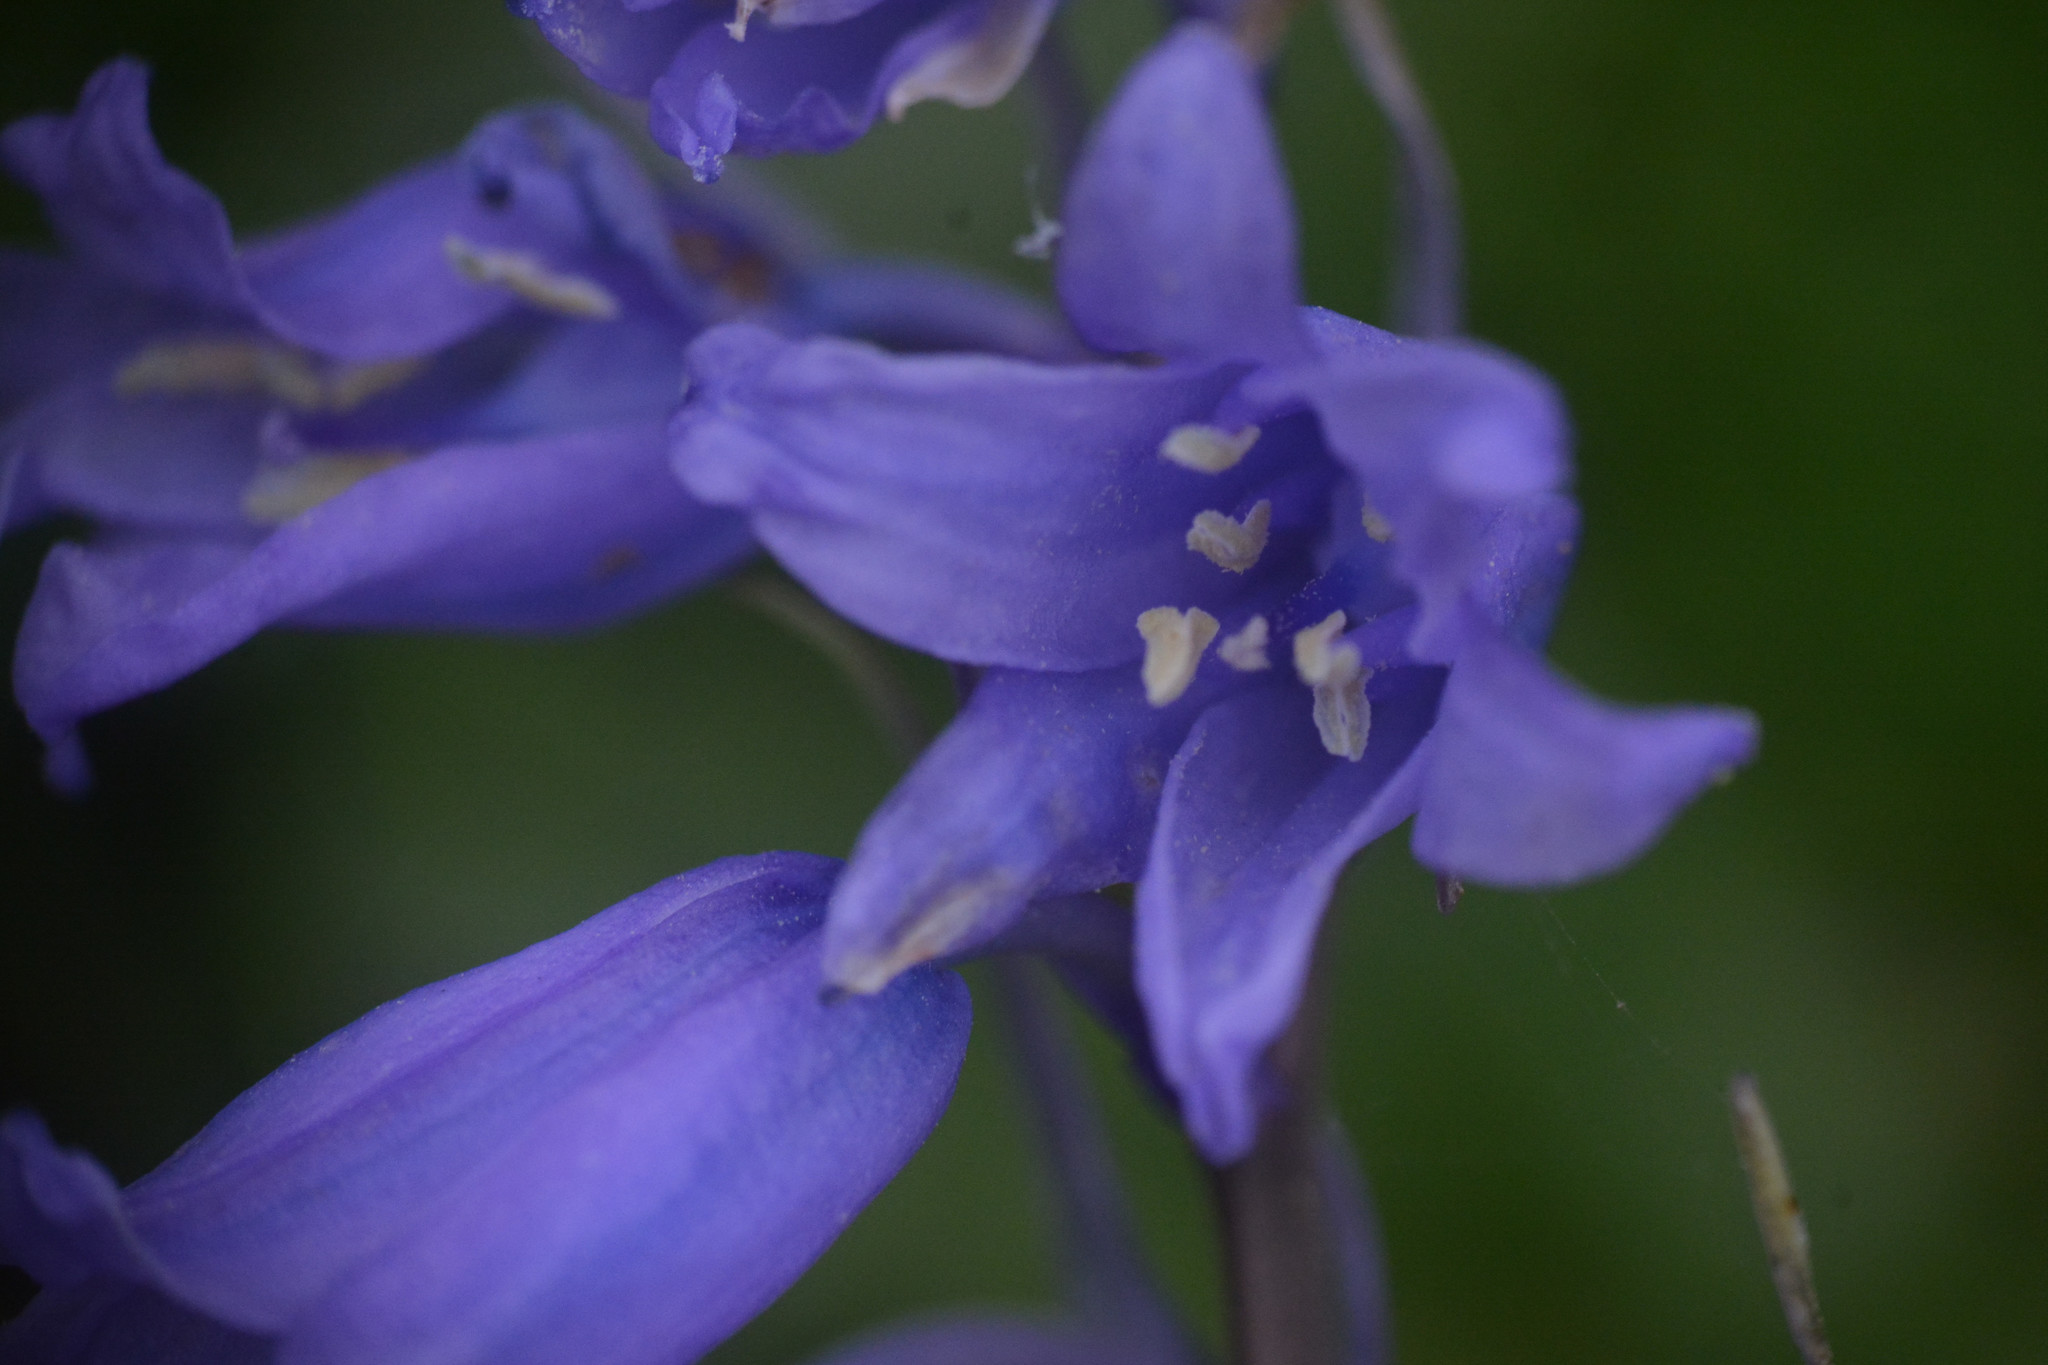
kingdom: Plantae
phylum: Tracheophyta
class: Liliopsida
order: Asparagales
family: Asparagaceae
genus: Hyacinthoides
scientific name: Hyacinthoides massartiana
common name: Hyacinthoides
